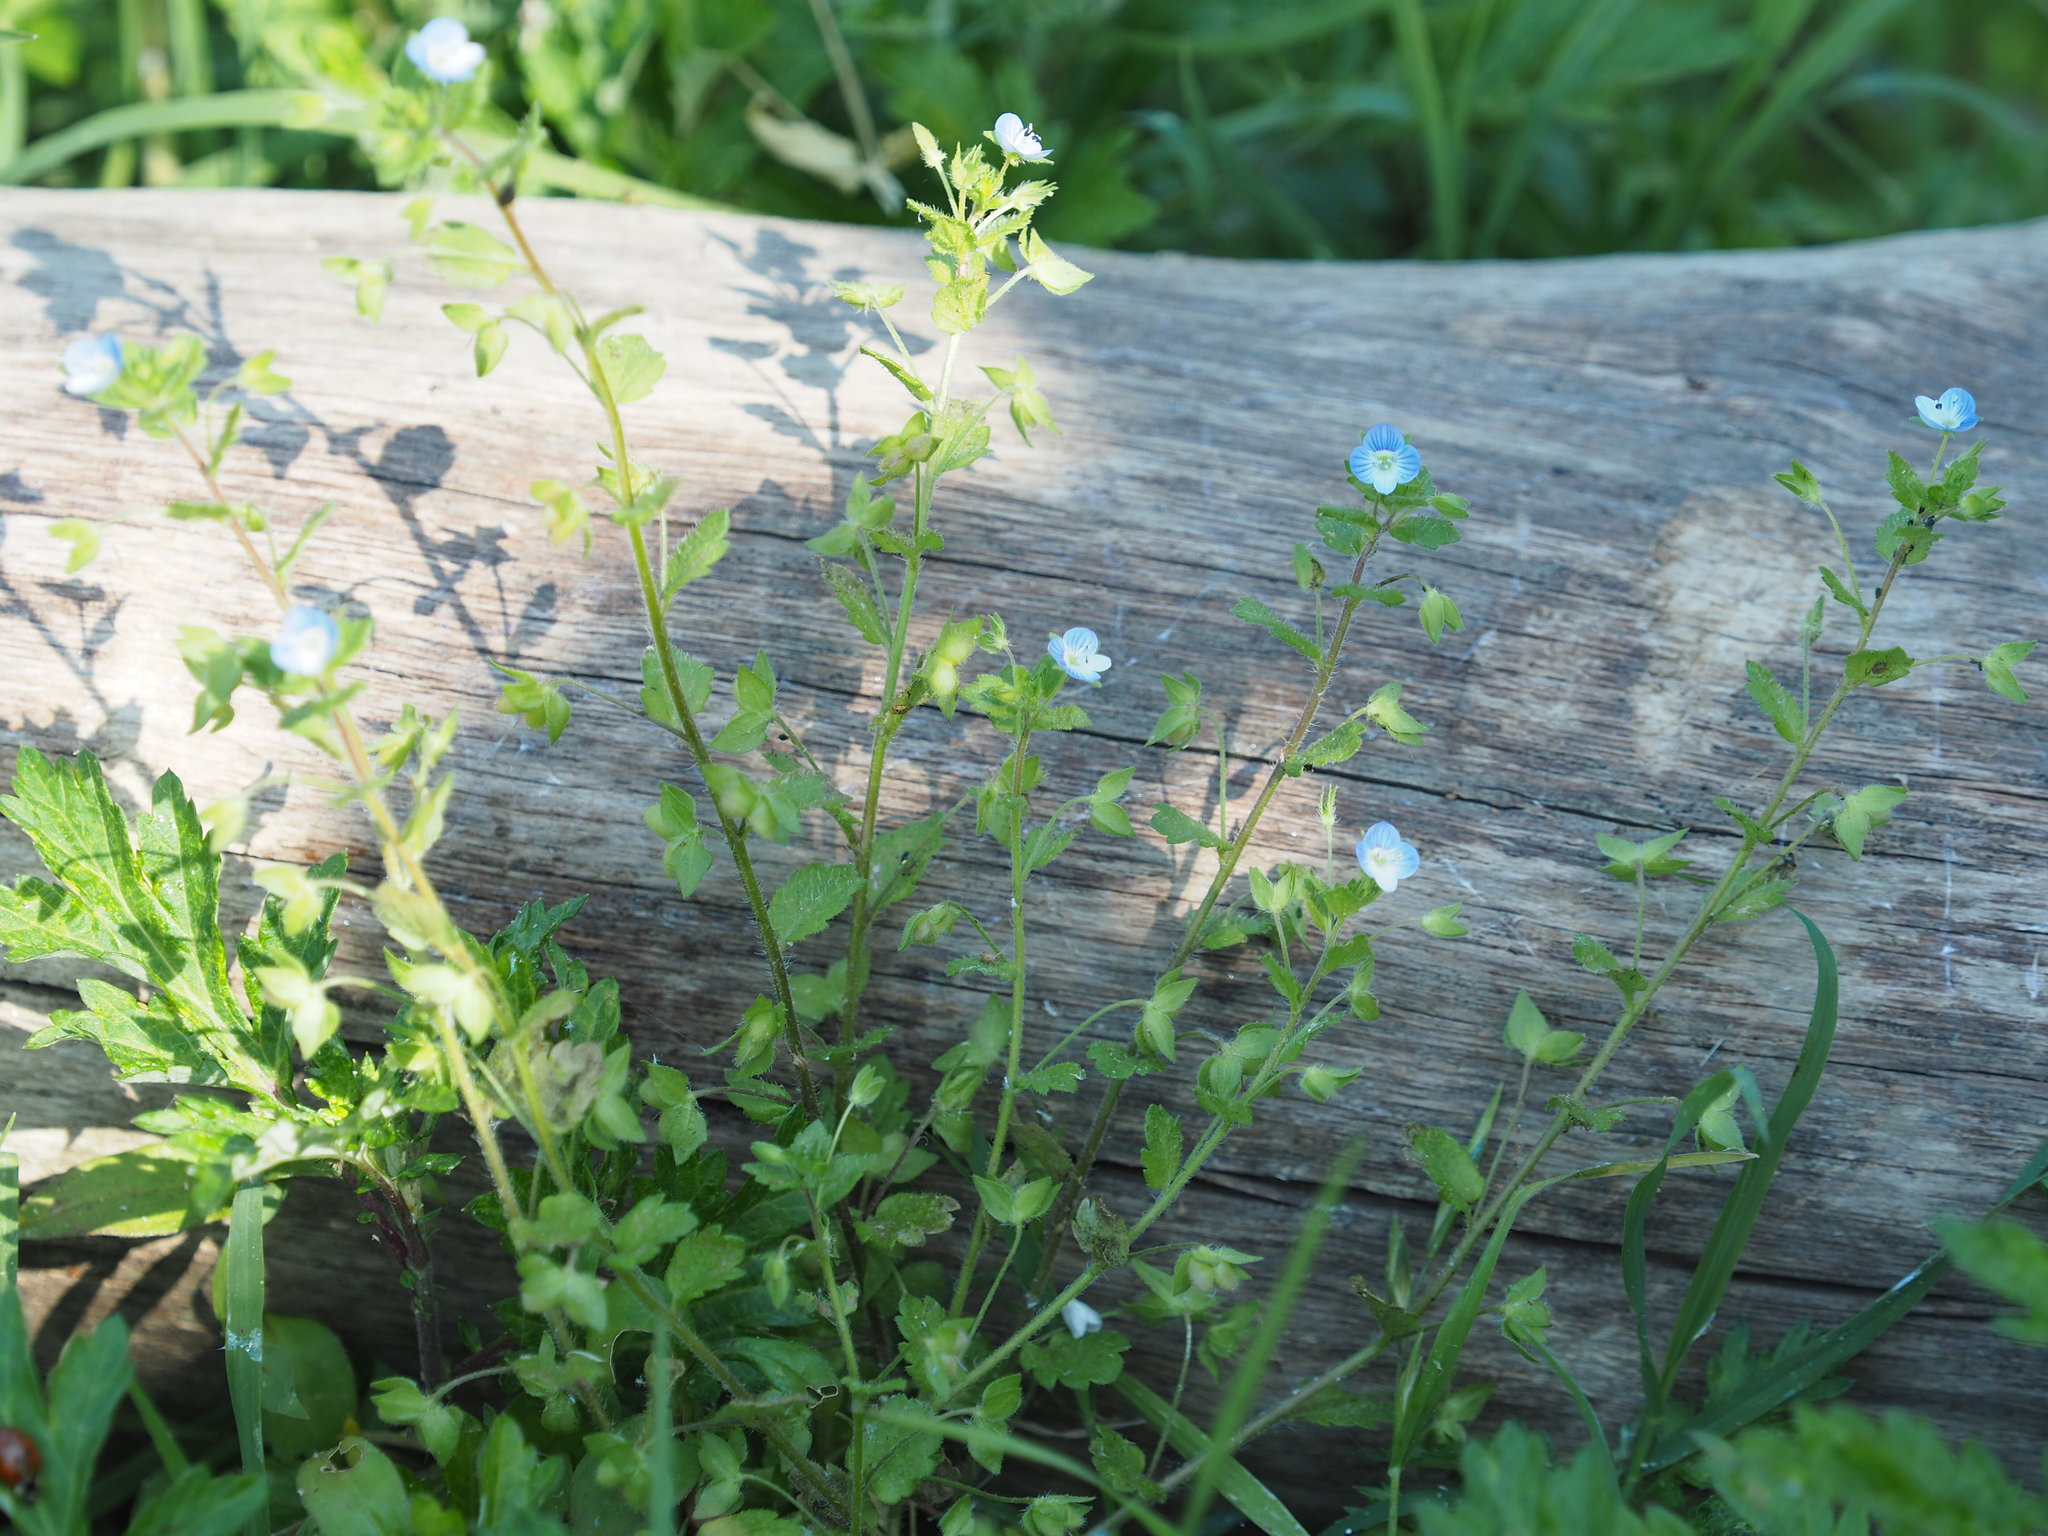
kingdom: Plantae
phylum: Tracheophyta
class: Magnoliopsida
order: Lamiales
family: Plantaginaceae
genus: Veronica
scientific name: Veronica persica
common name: Common field-speedwell
